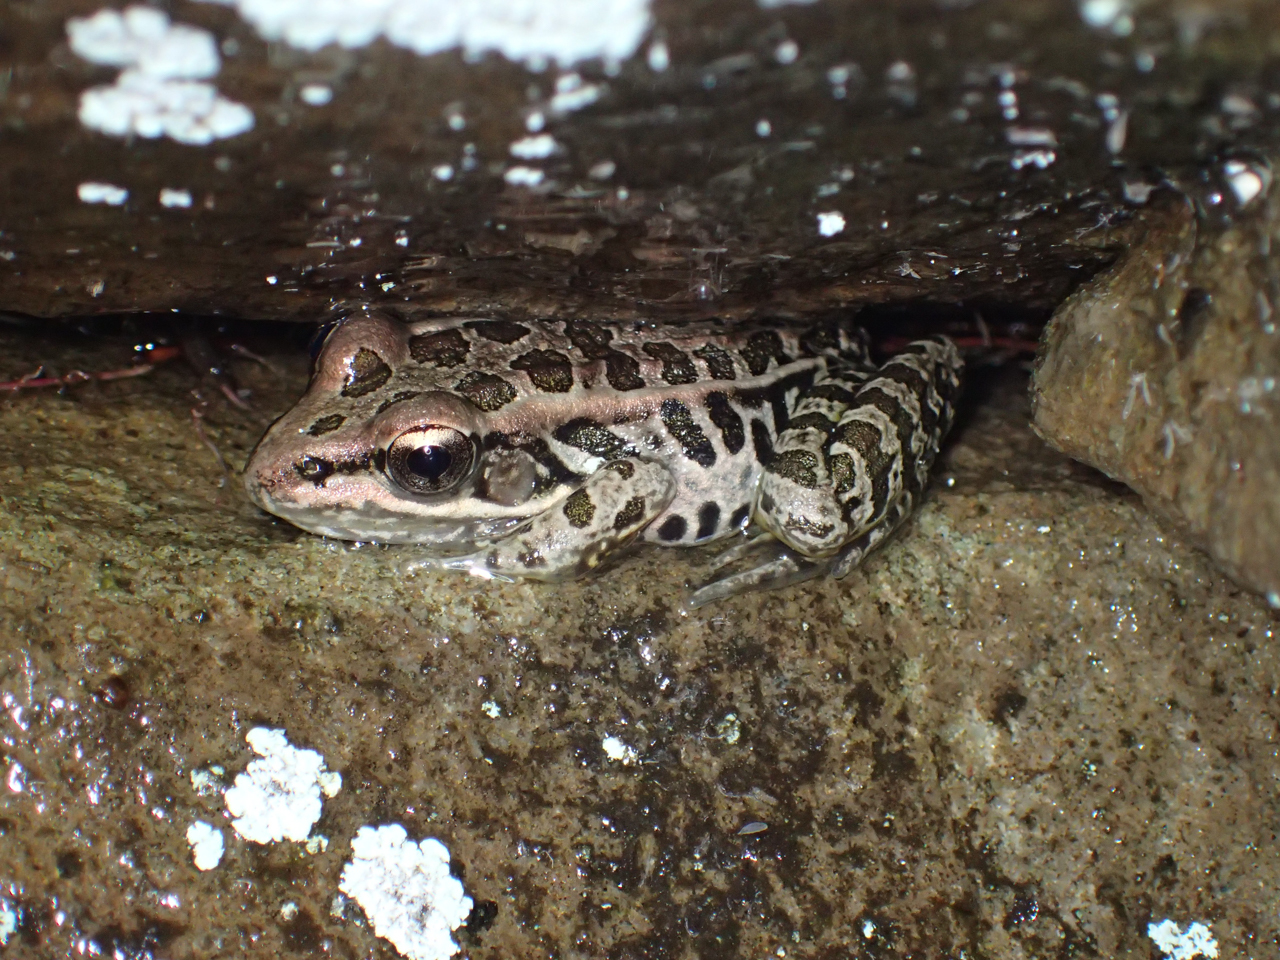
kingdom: Animalia
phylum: Chordata
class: Amphibia
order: Anura
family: Ranidae
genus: Lithobates
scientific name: Lithobates palustris
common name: Pickerel frog
